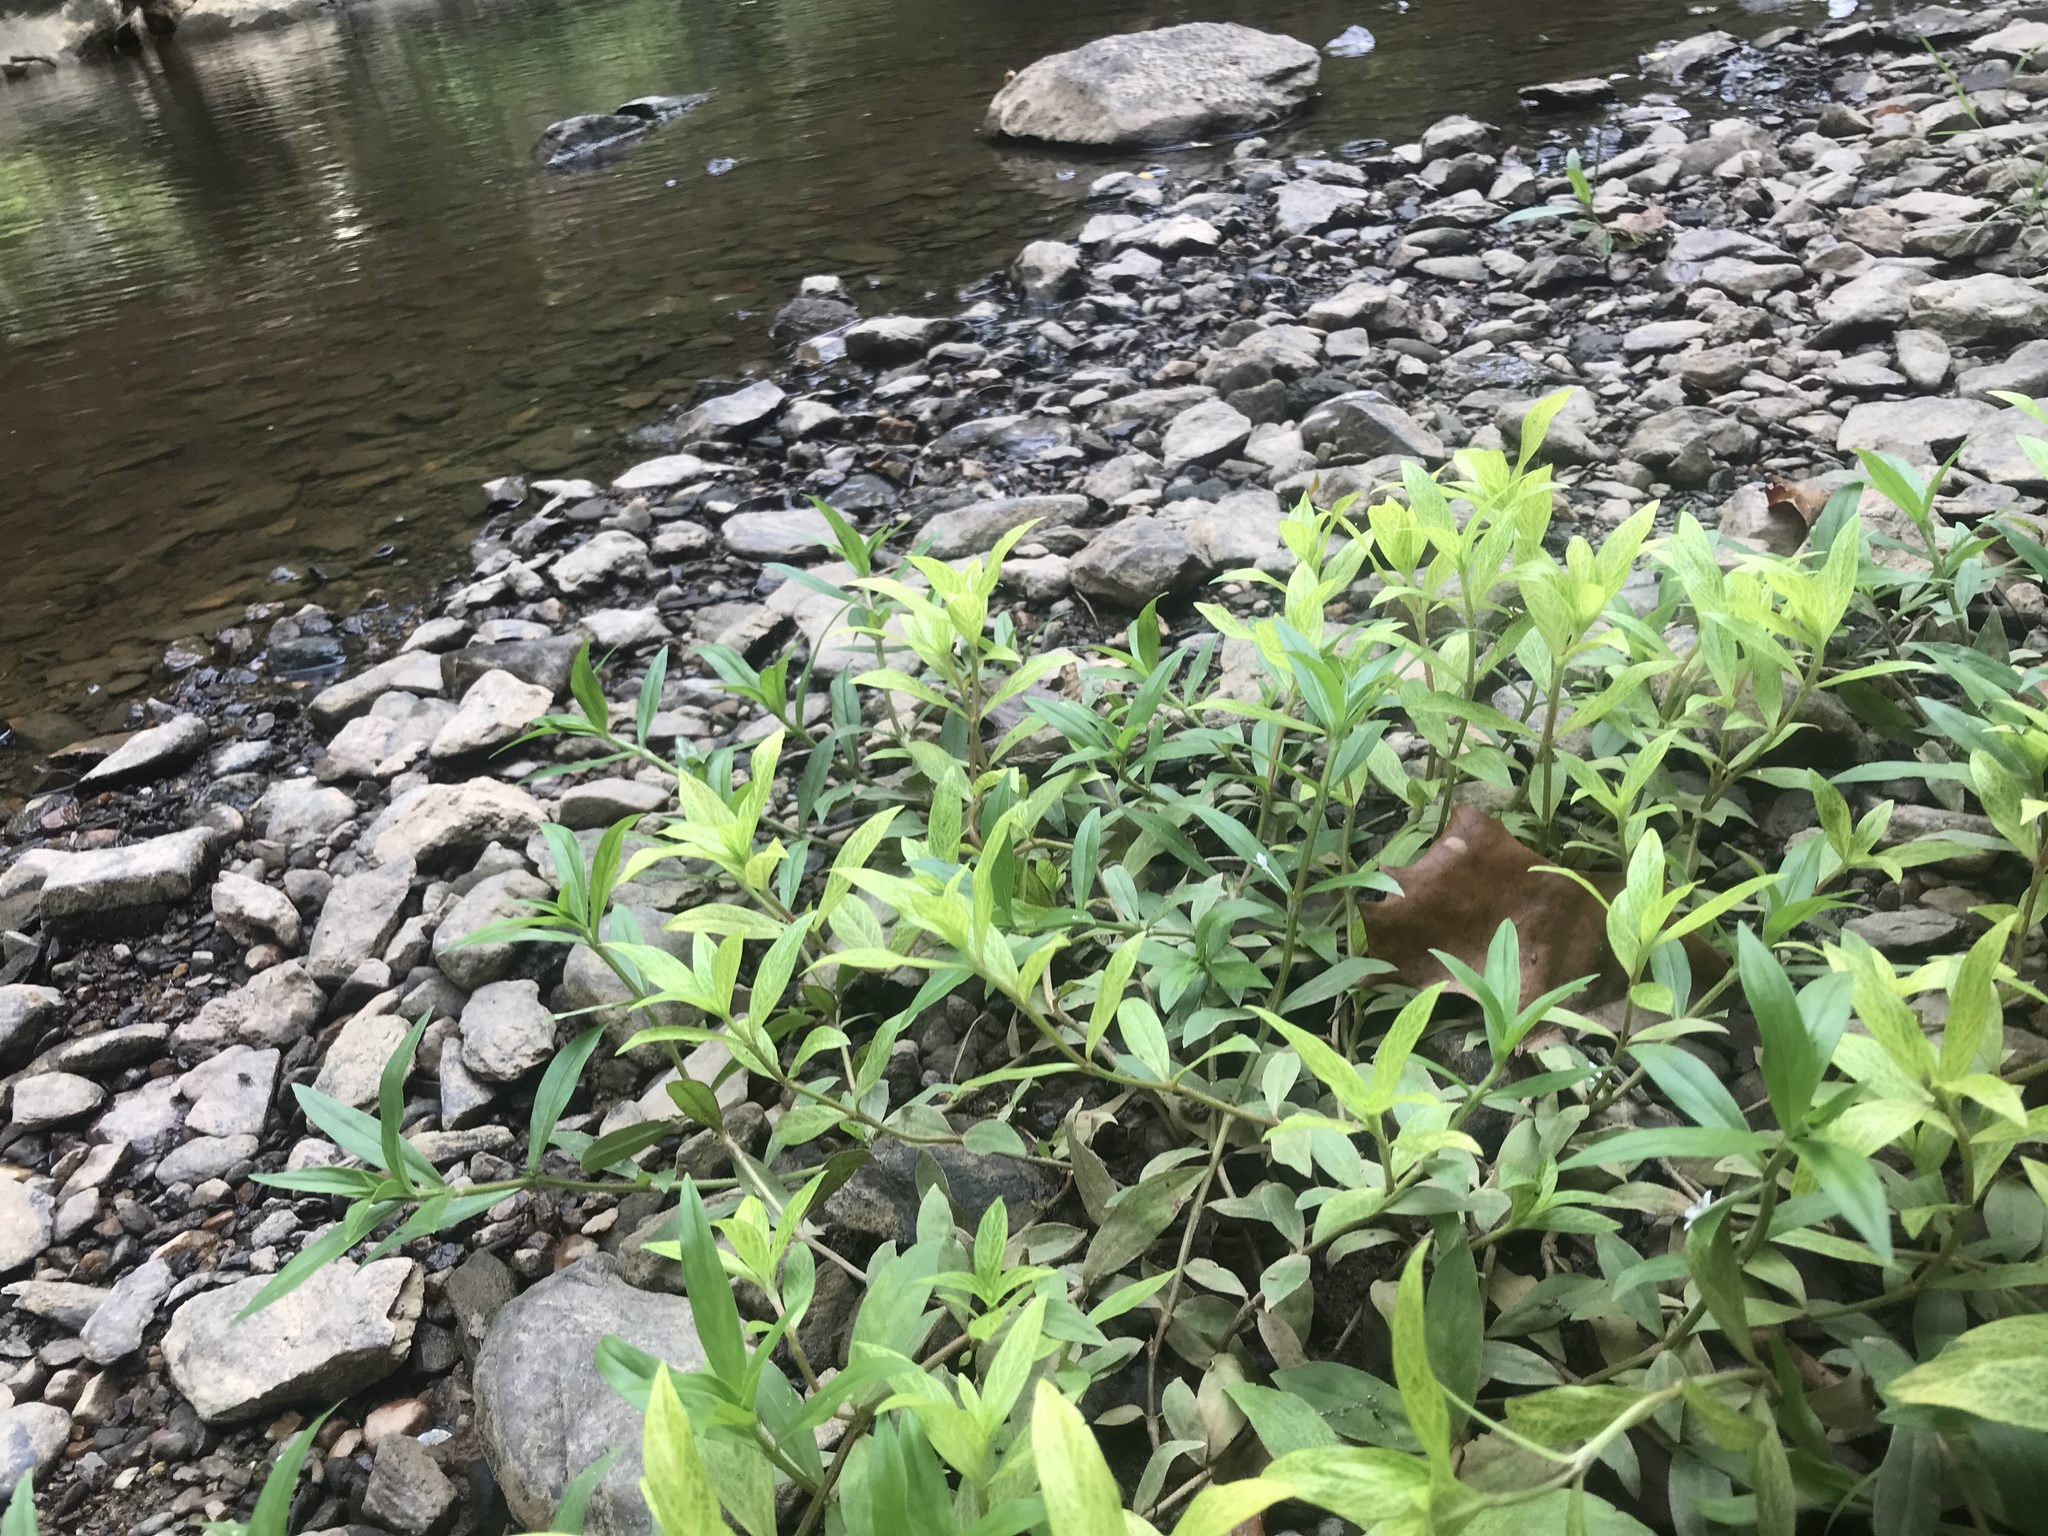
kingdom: Plantae
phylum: Tracheophyta
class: Magnoliopsida
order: Gentianales
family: Rubiaceae
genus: Diodia
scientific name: Diodia virginiana
